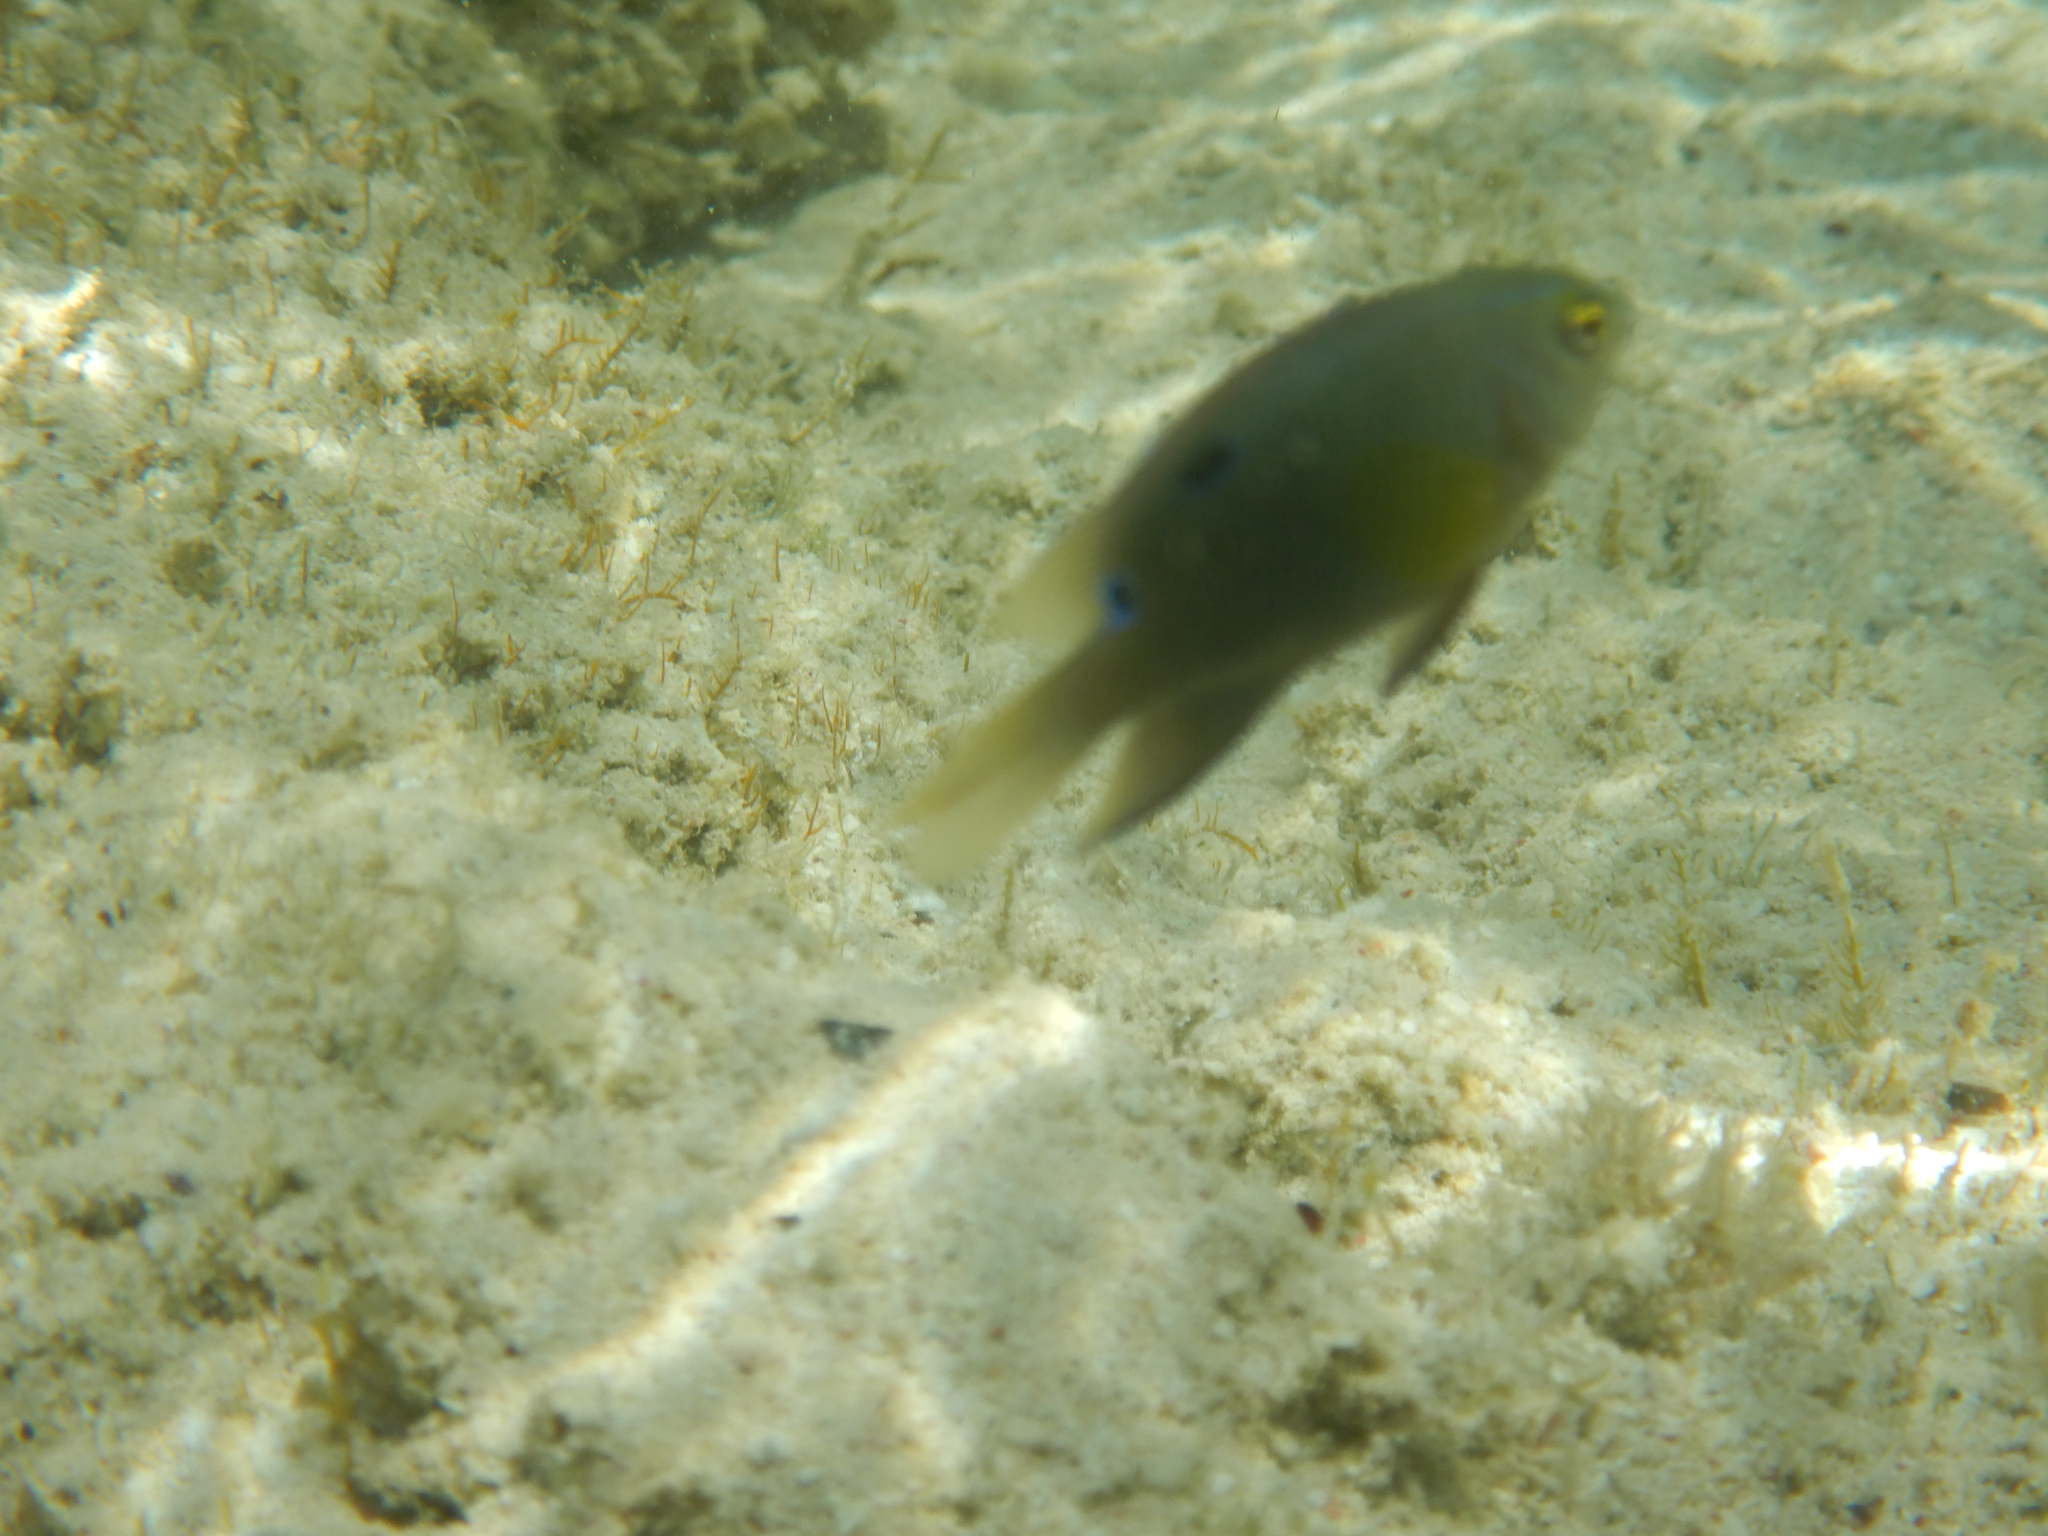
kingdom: Animalia
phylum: Chordata
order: Perciformes
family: Pomacentridae
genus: Chrysiptera
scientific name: Chrysiptera unimaculata
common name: Onespot demoiselle
